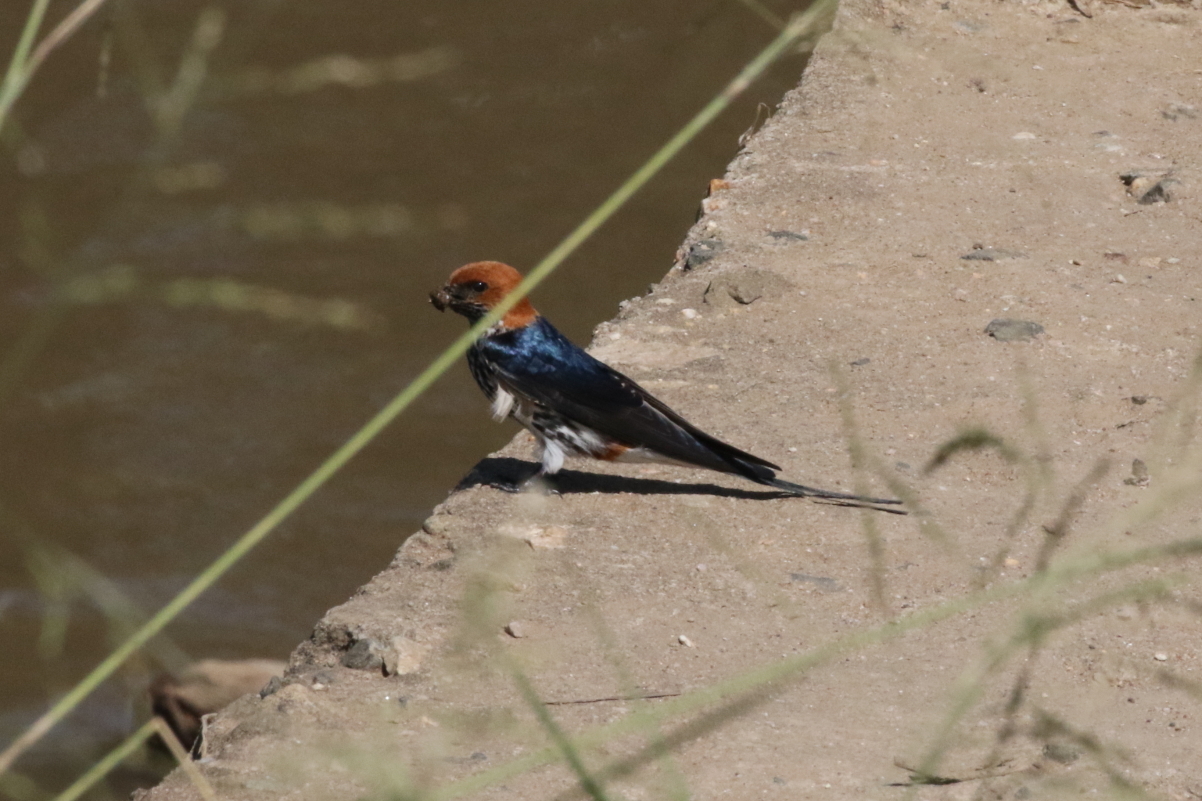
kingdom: Animalia
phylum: Chordata
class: Aves
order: Passeriformes
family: Hirundinidae
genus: Cecropis
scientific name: Cecropis abyssinica
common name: Lesser striped-swallow
